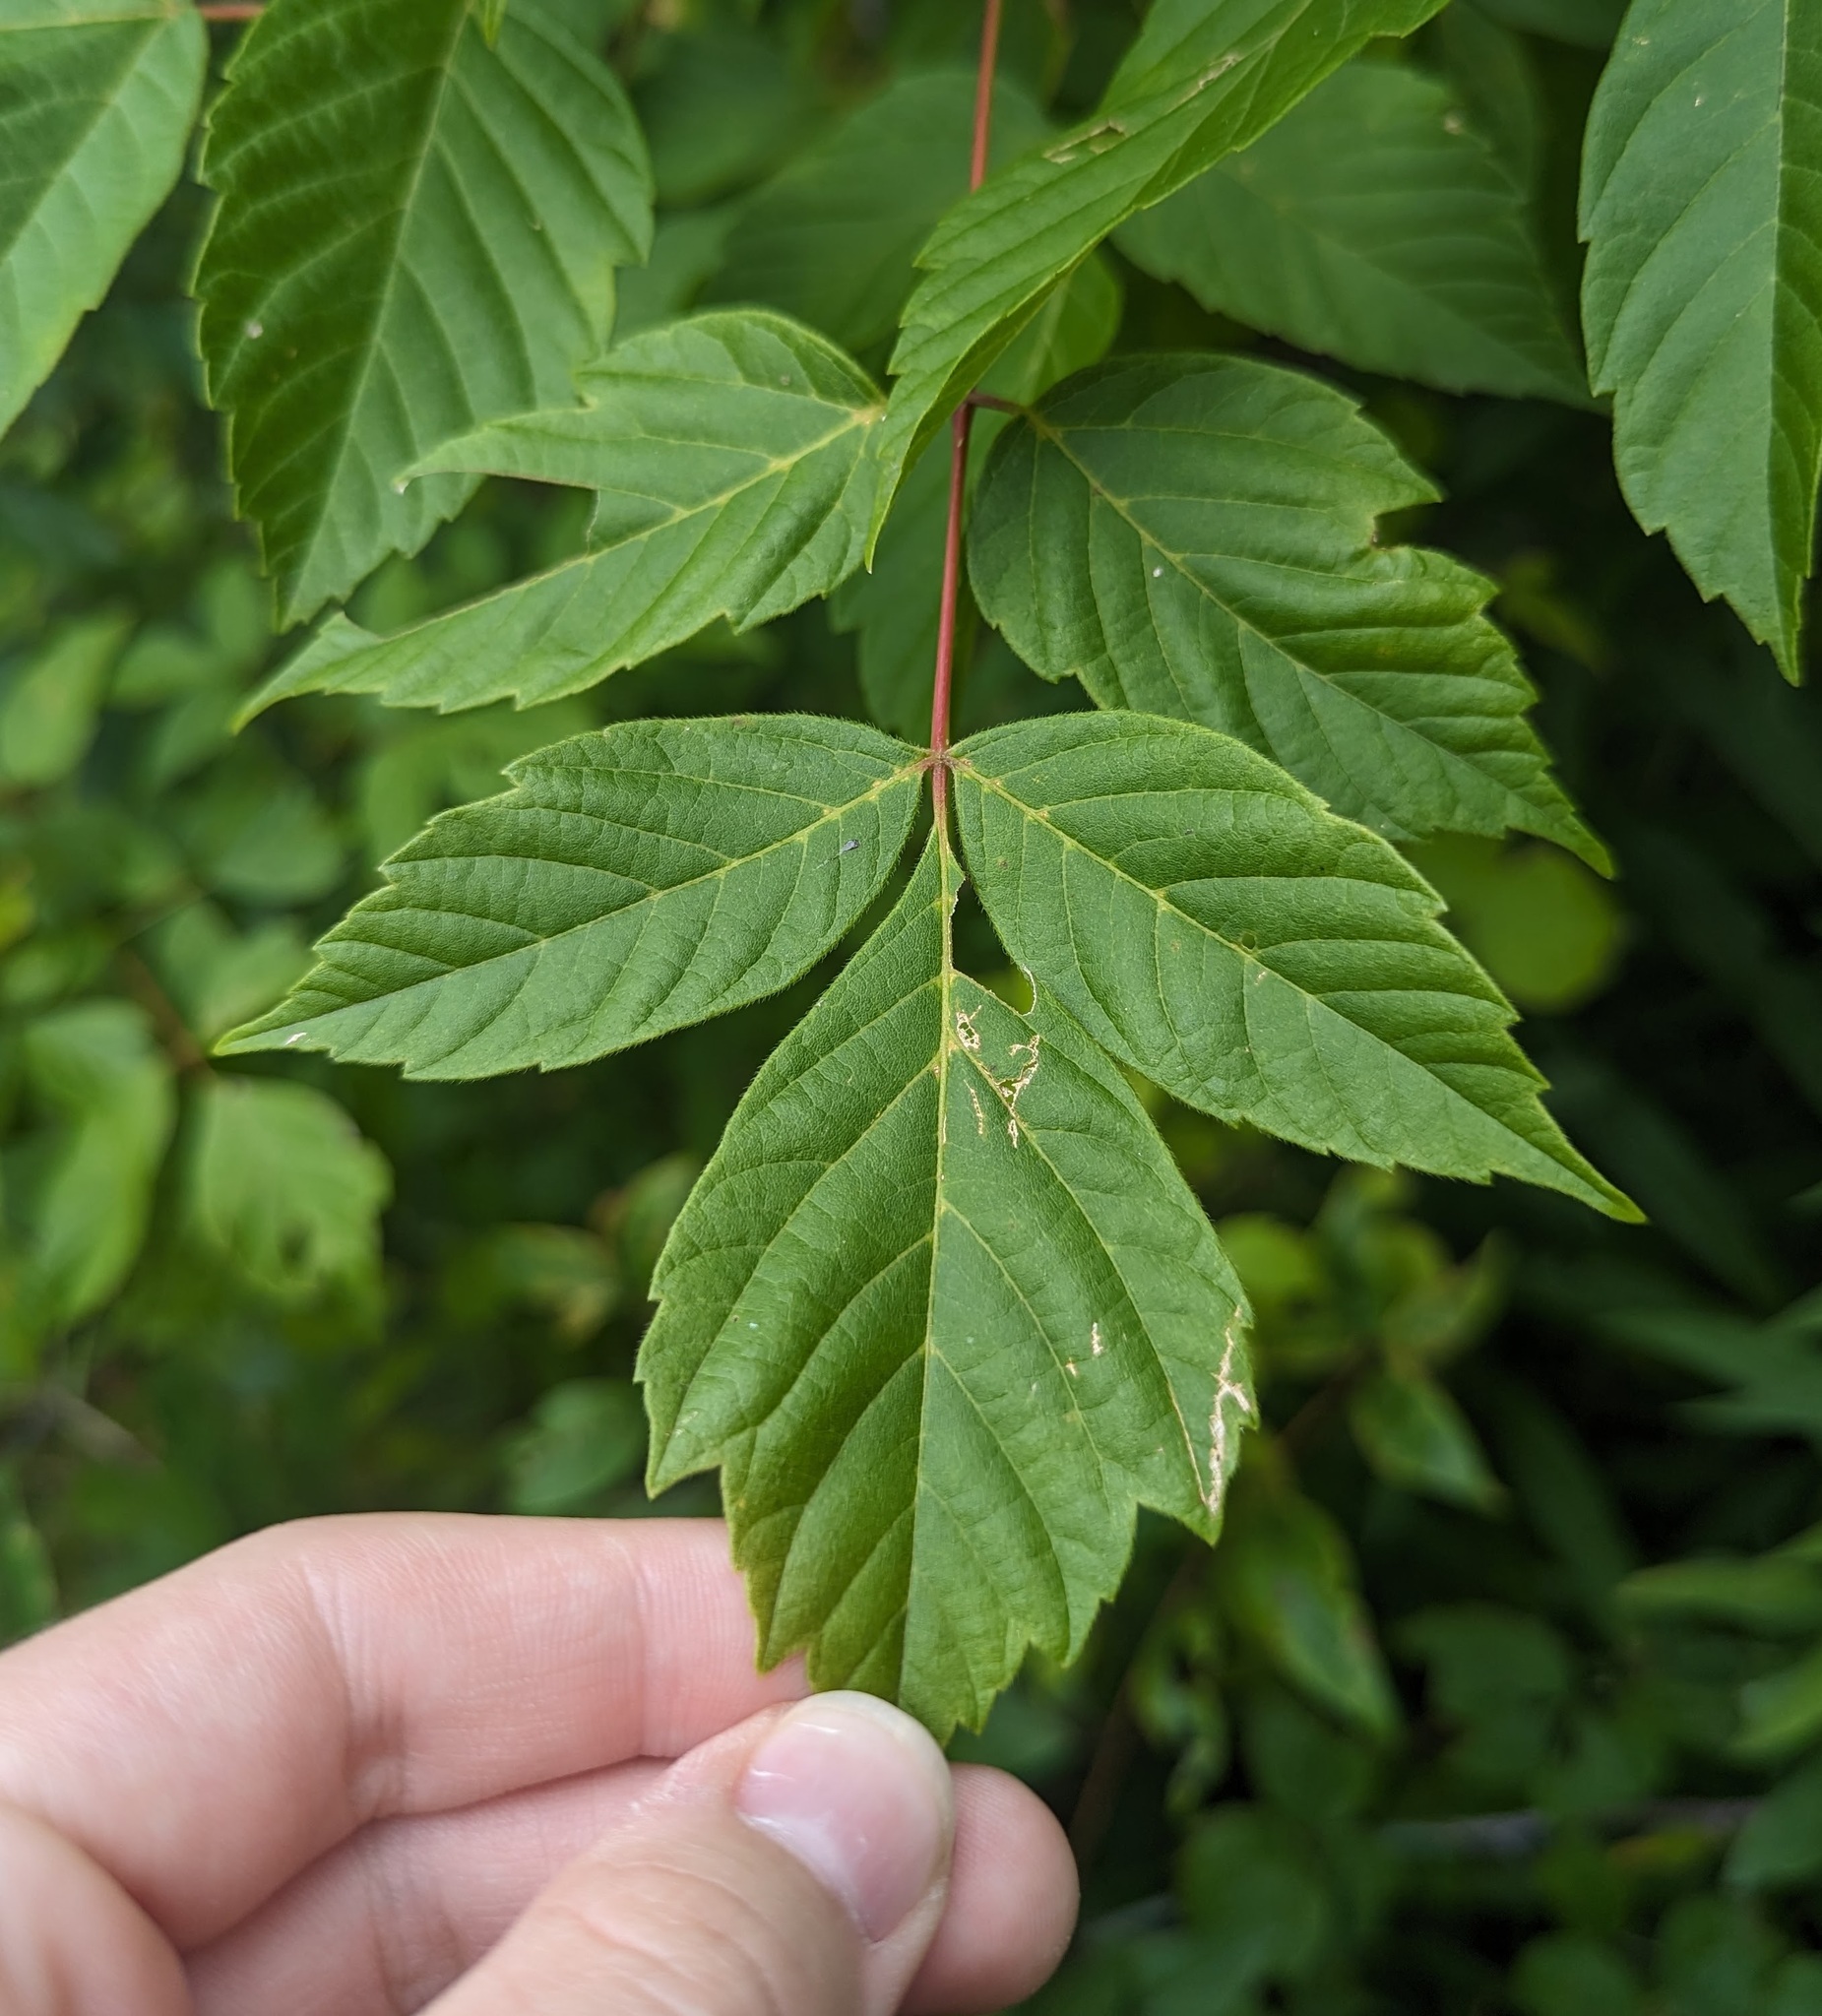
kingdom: Plantae
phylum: Tracheophyta
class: Magnoliopsida
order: Sapindales
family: Sapindaceae
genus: Acer
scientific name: Acer negundo
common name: Ashleaf maple
